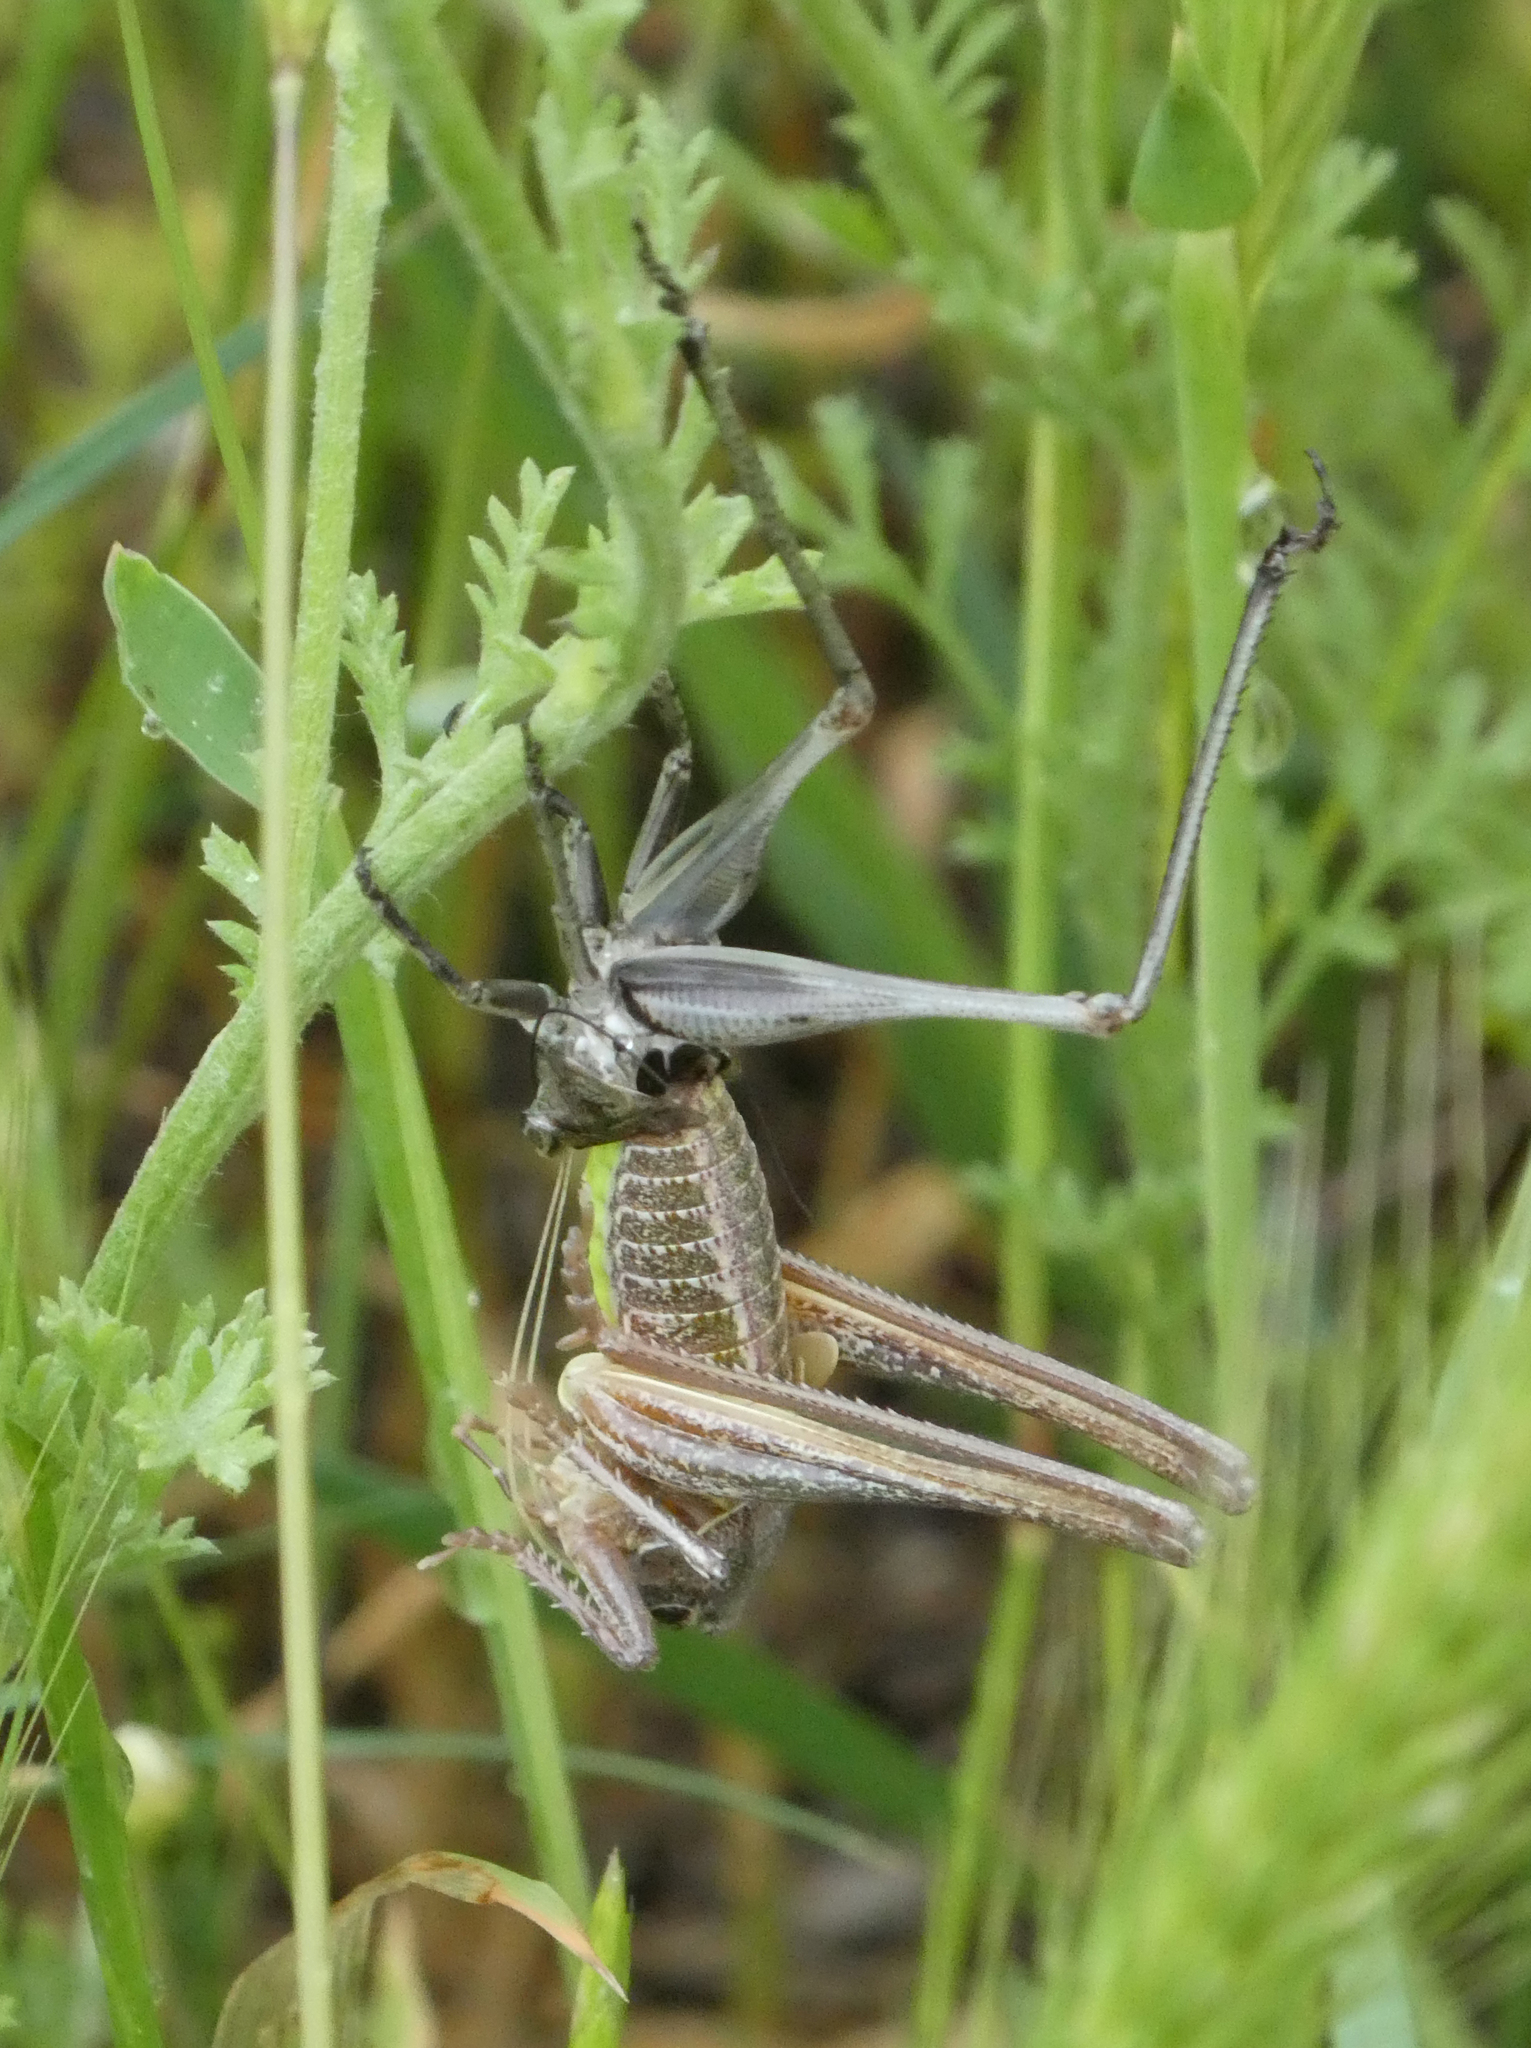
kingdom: Animalia
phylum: Arthropoda
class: Insecta
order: Orthoptera
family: Tettigoniidae
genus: Decticus
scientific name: Decticus verrucivorus
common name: Wart-biter
